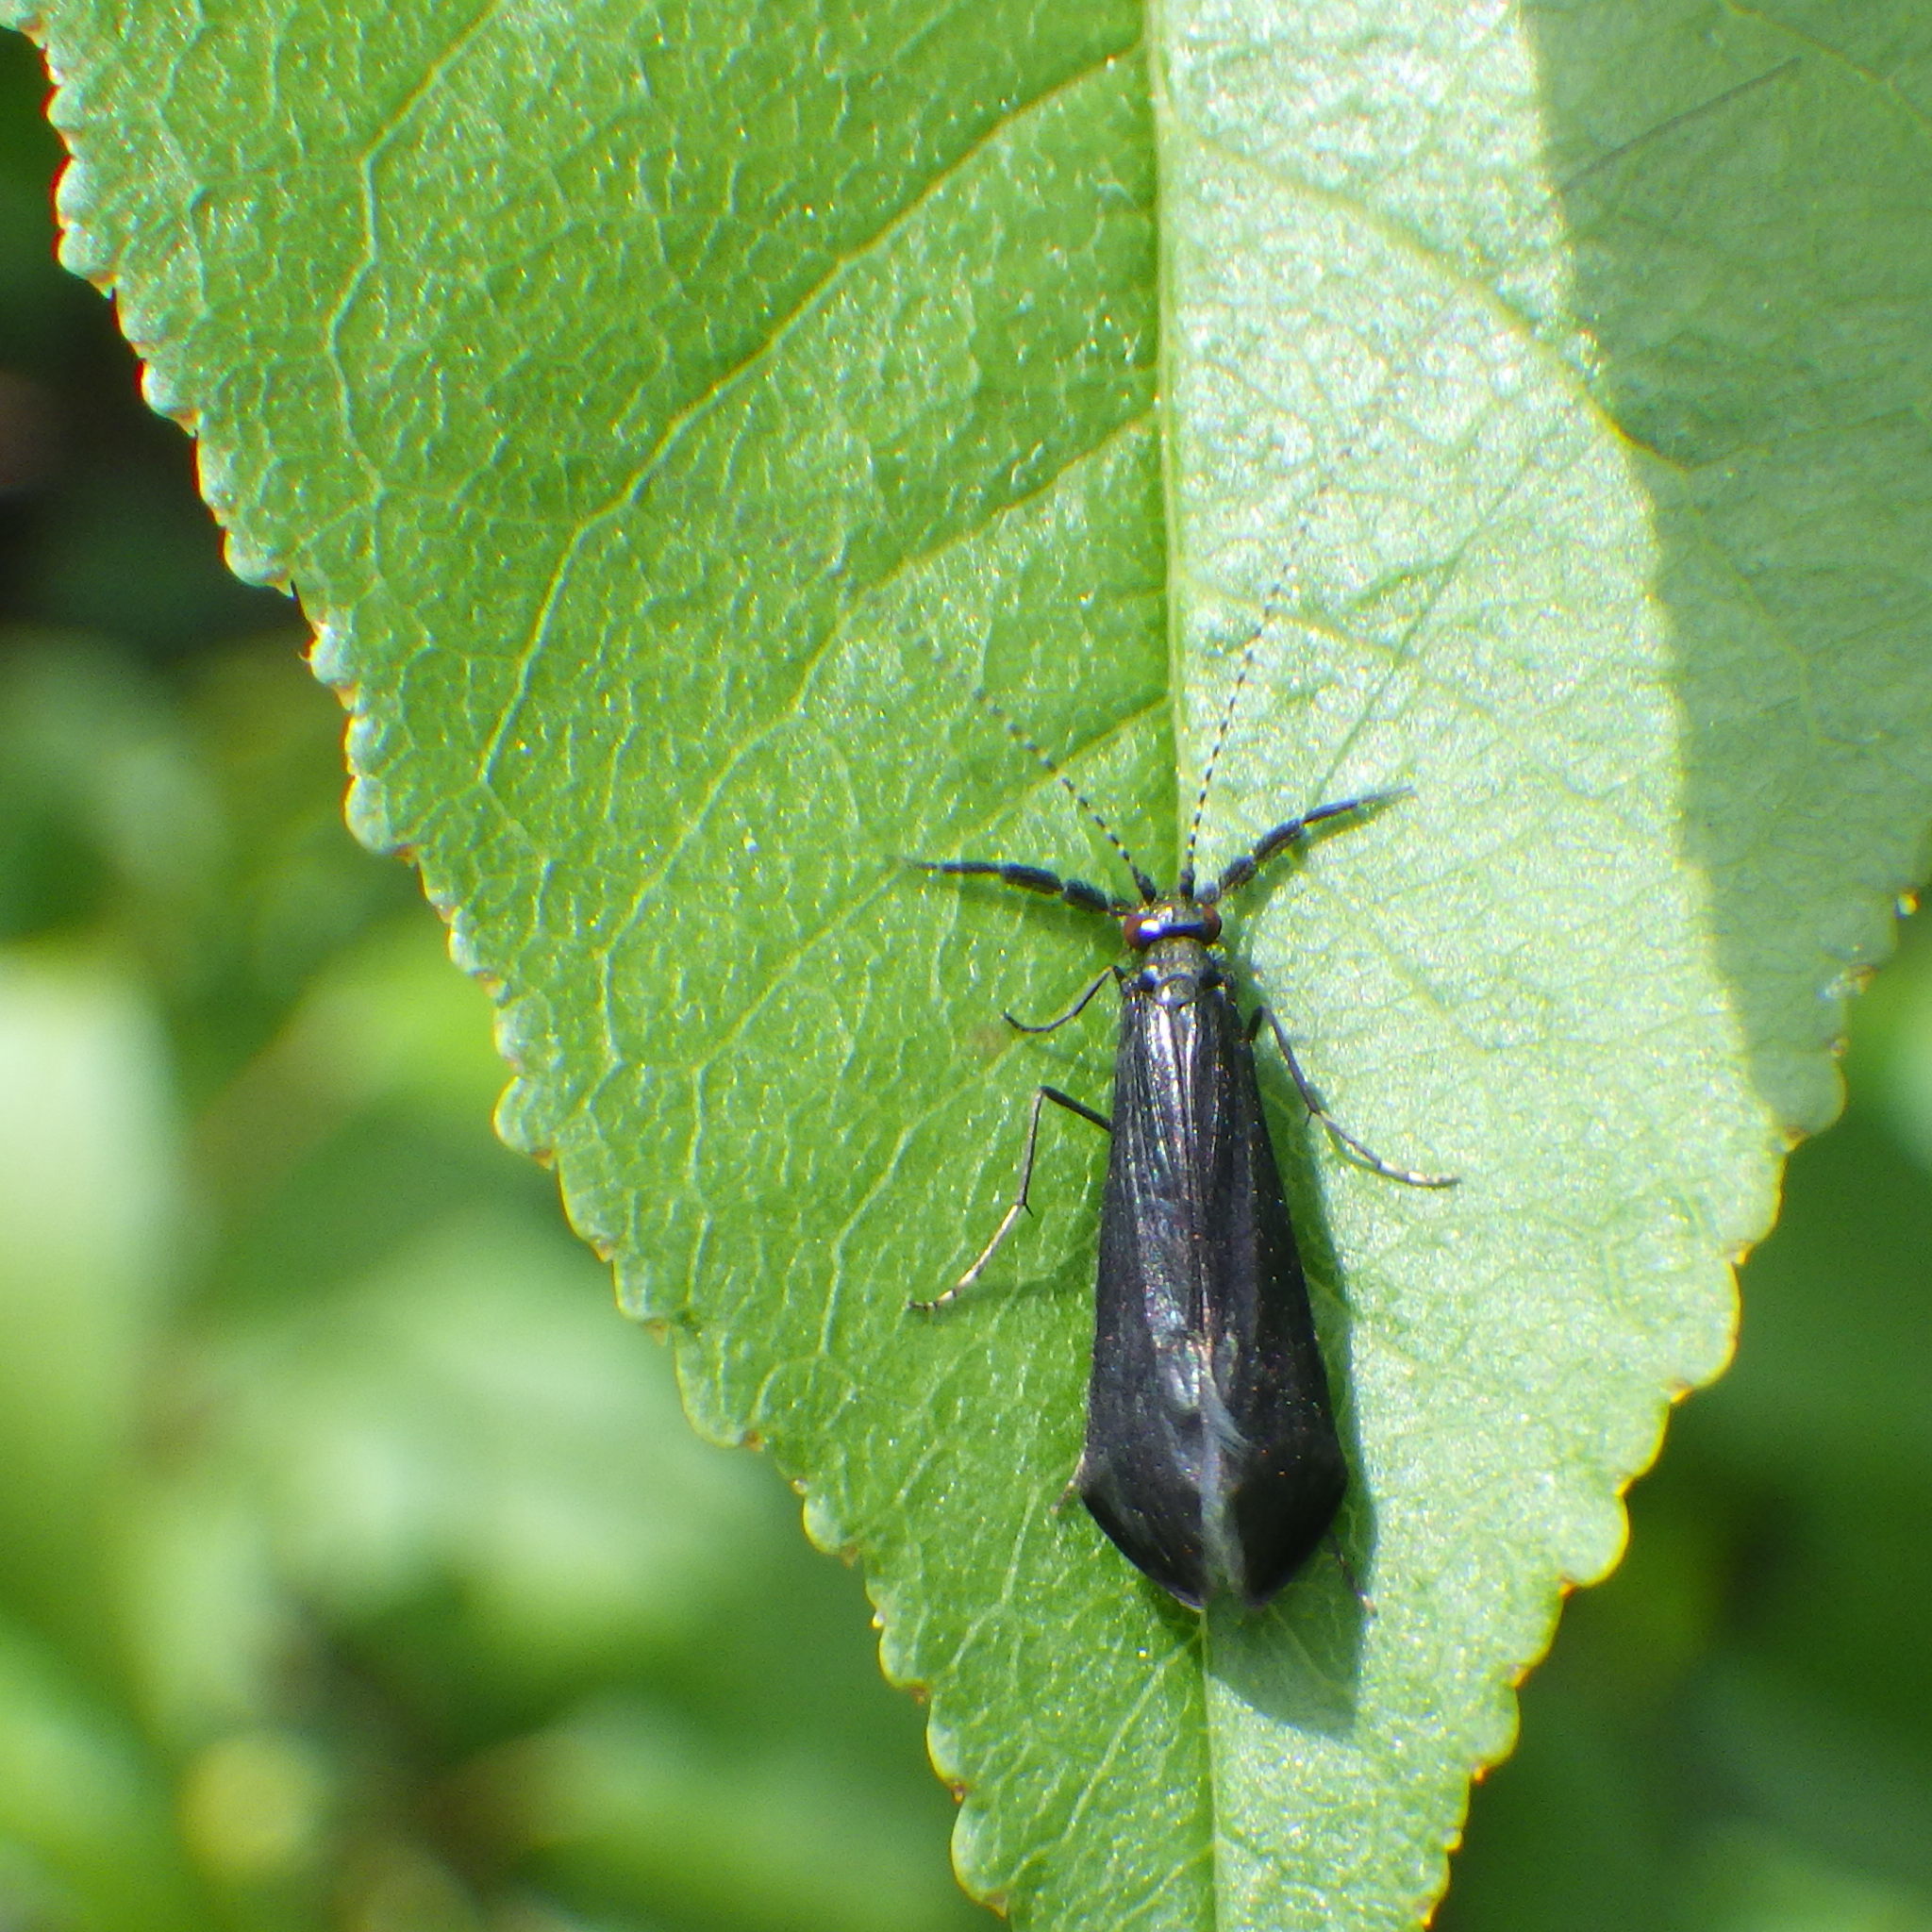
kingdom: Animalia
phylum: Arthropoda
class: Insecta
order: Trichoptera
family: Leptoceridae
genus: Mystacides
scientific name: Mystacides sepulchralis
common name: Black dancer caddisfly
